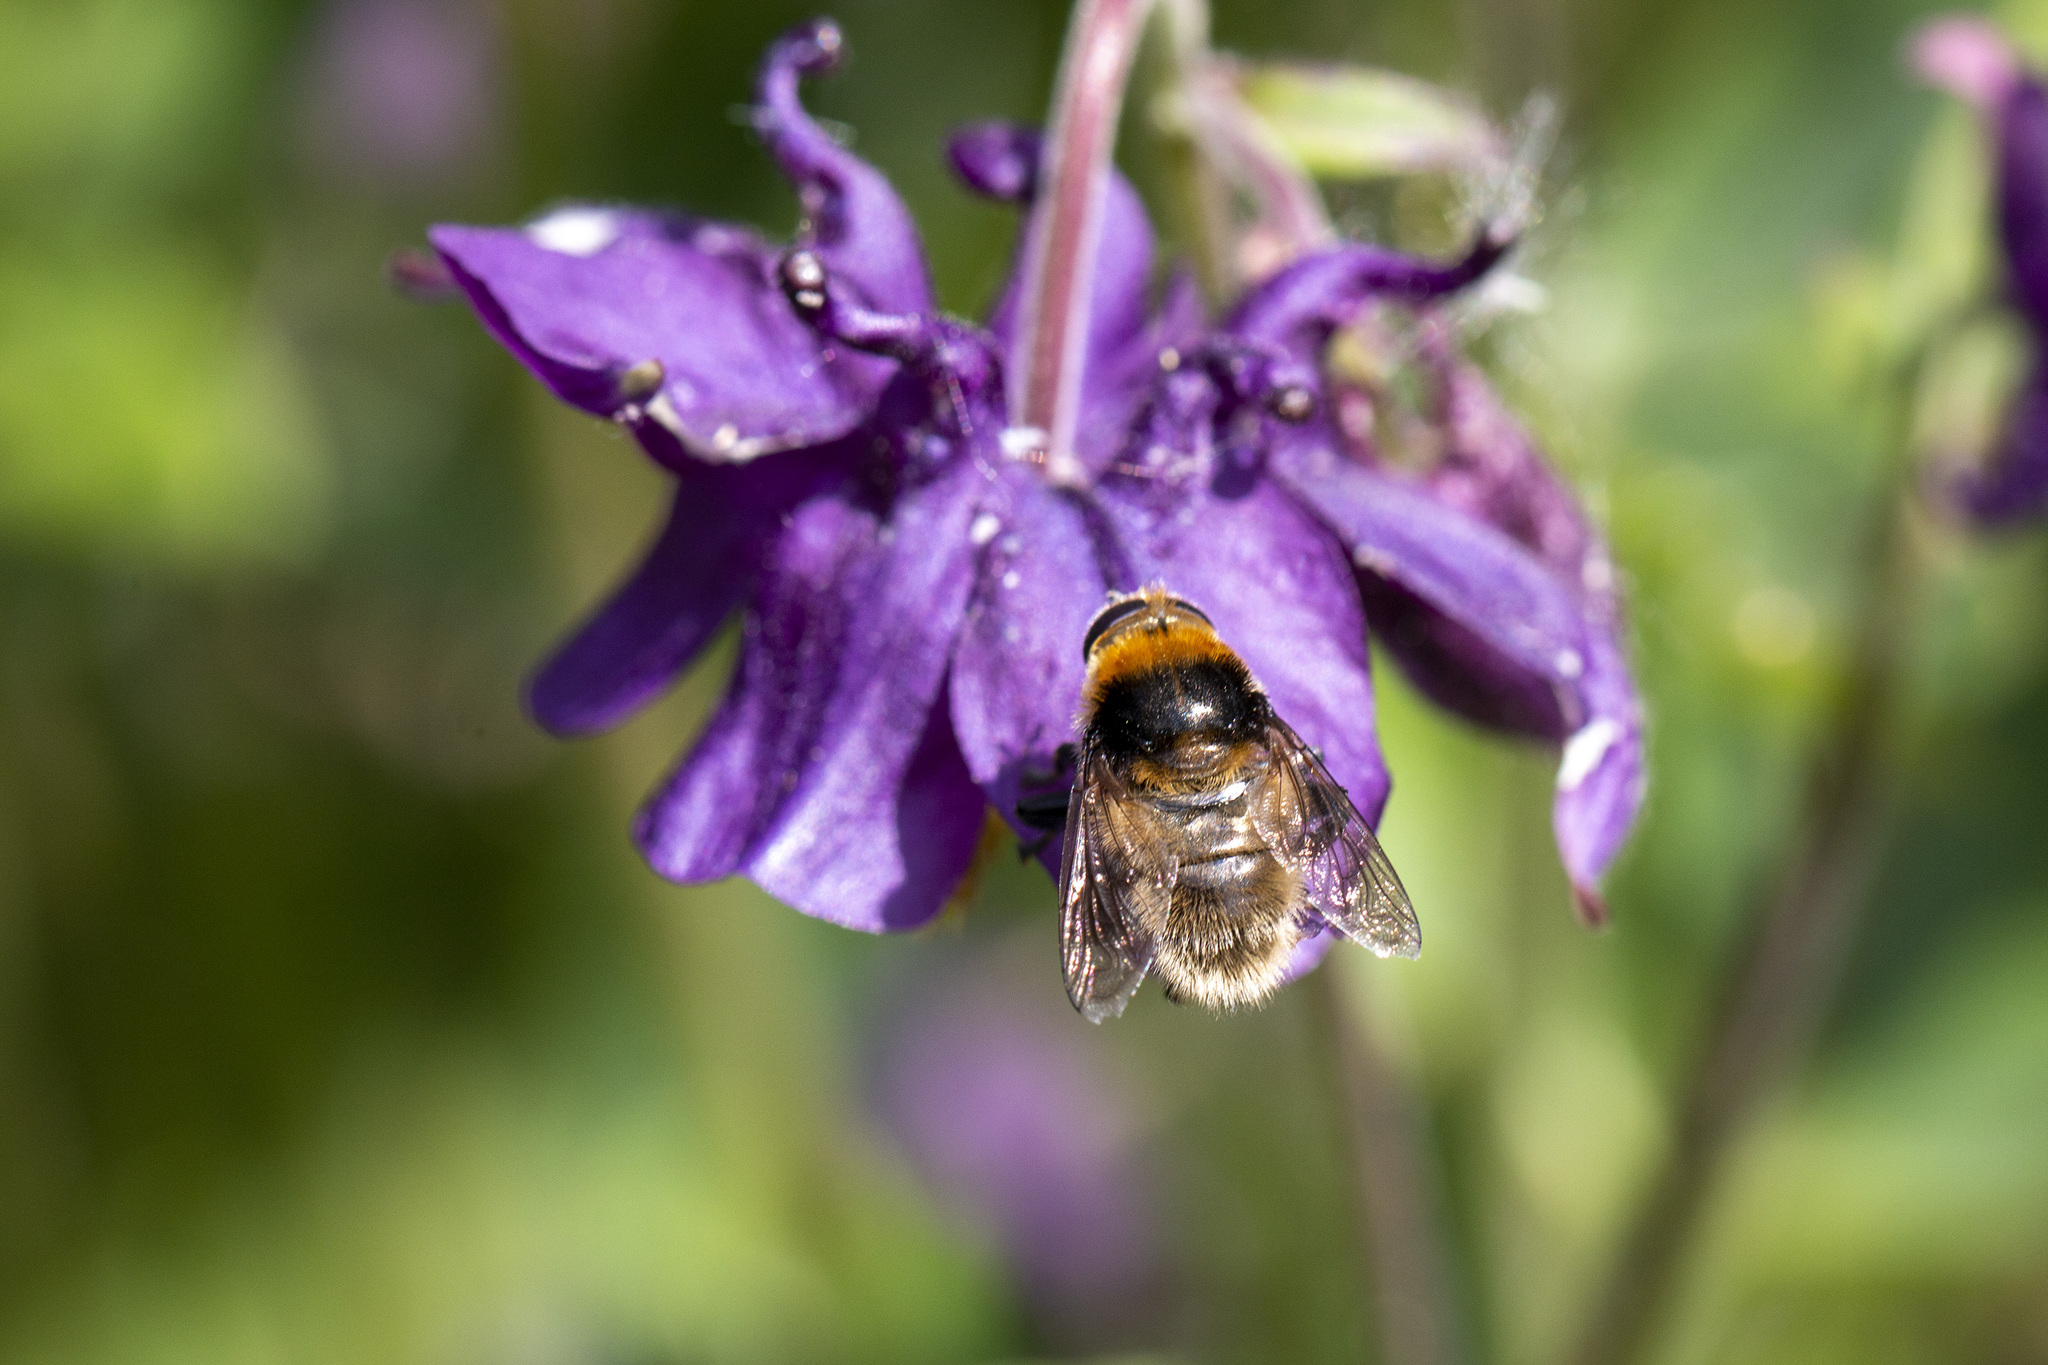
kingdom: Animalia
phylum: Arthropoda
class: Insecta
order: Diptera
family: Syrphidae
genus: Merodon
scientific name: Merodon equestris
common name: Greater bulb-fly
